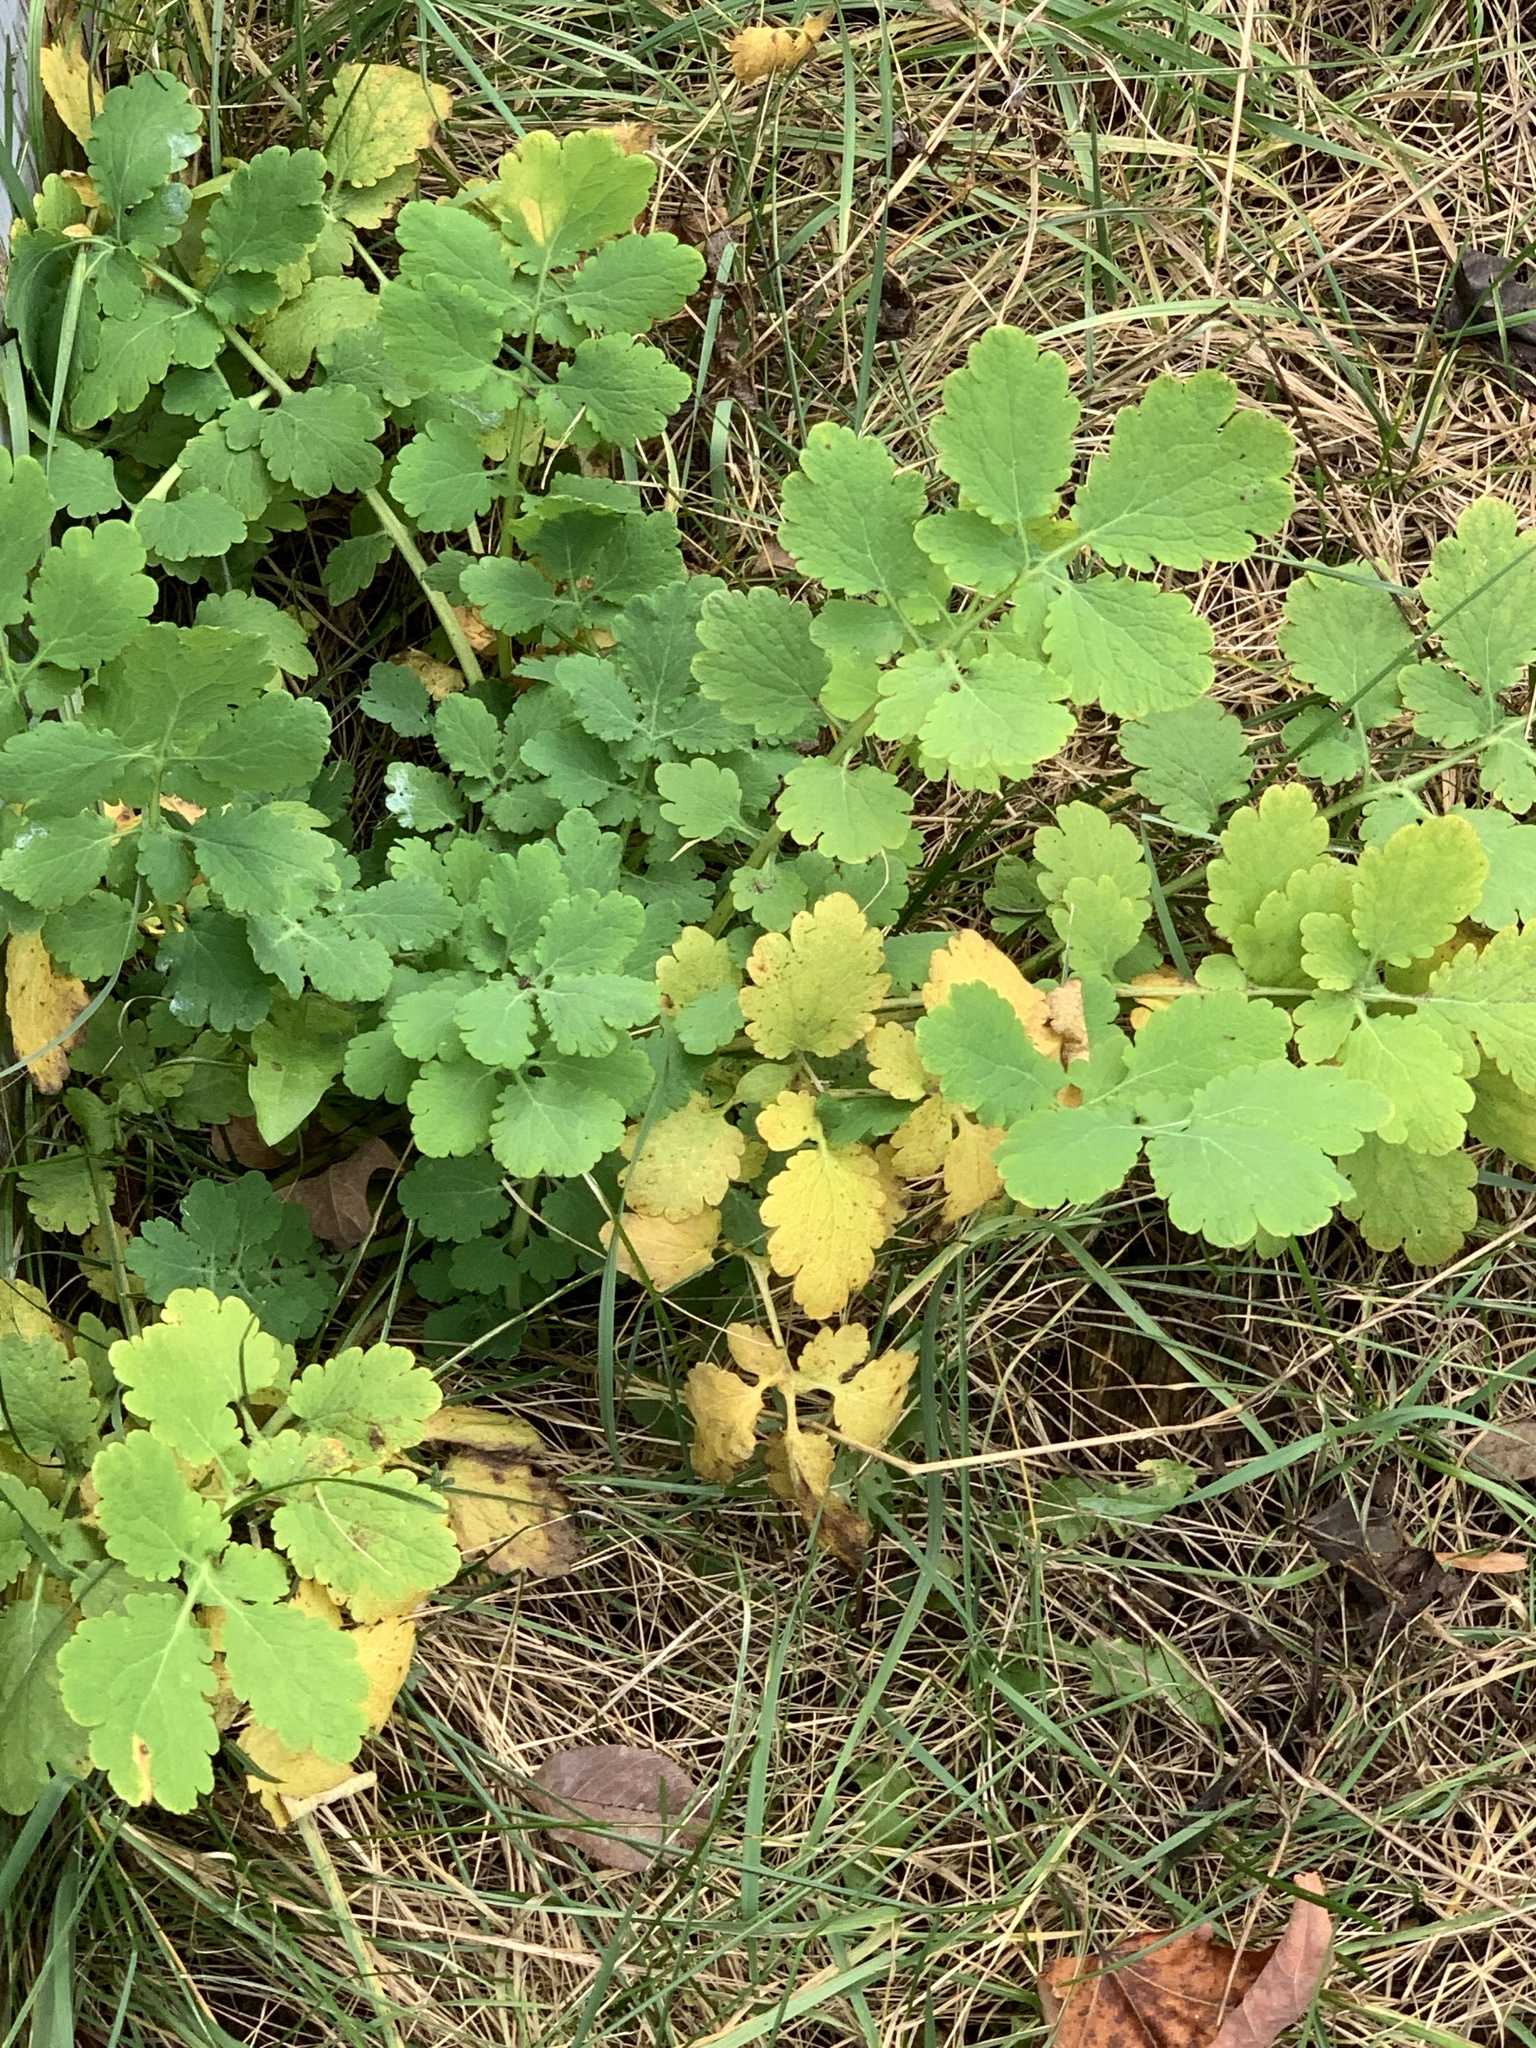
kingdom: Plantae
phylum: Tracheophyta
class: Magnoliopsida
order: Ranunculales
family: Papaveraceae
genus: Chelidonium
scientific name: Chelidonium majus
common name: Greater celandine
